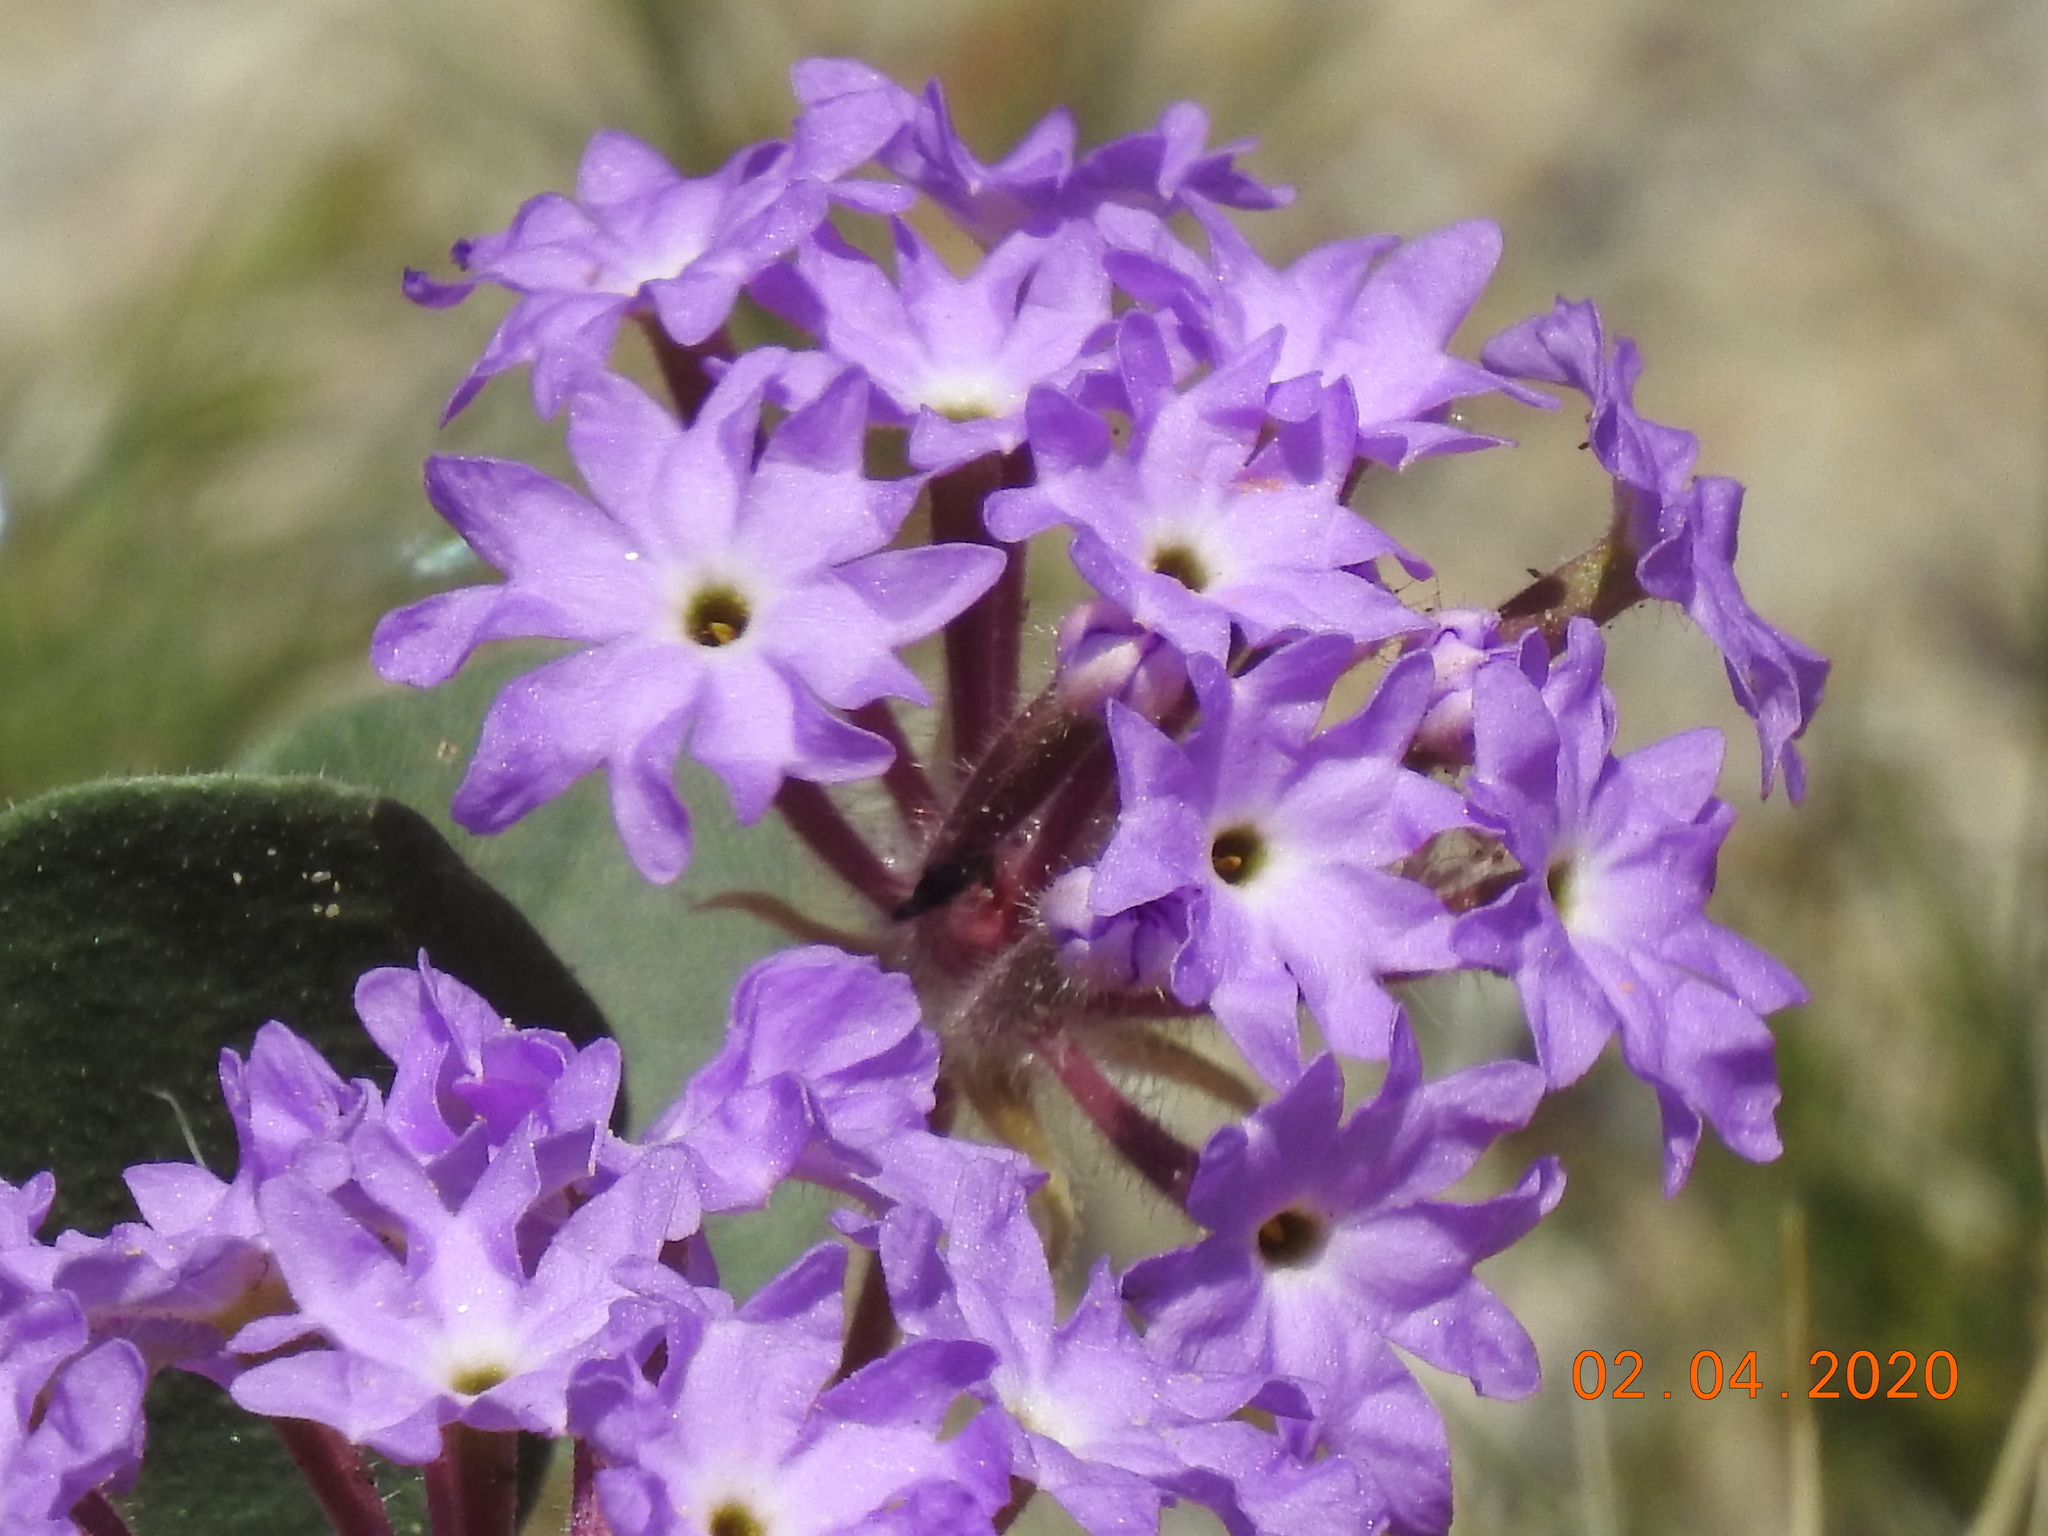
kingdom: Plantae
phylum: Tracheophyta
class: Magnoliopsida
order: Caryophyllales
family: Nyctaginaceae
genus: Abronia
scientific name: Abronia villosa
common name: Desert sand-verbena
